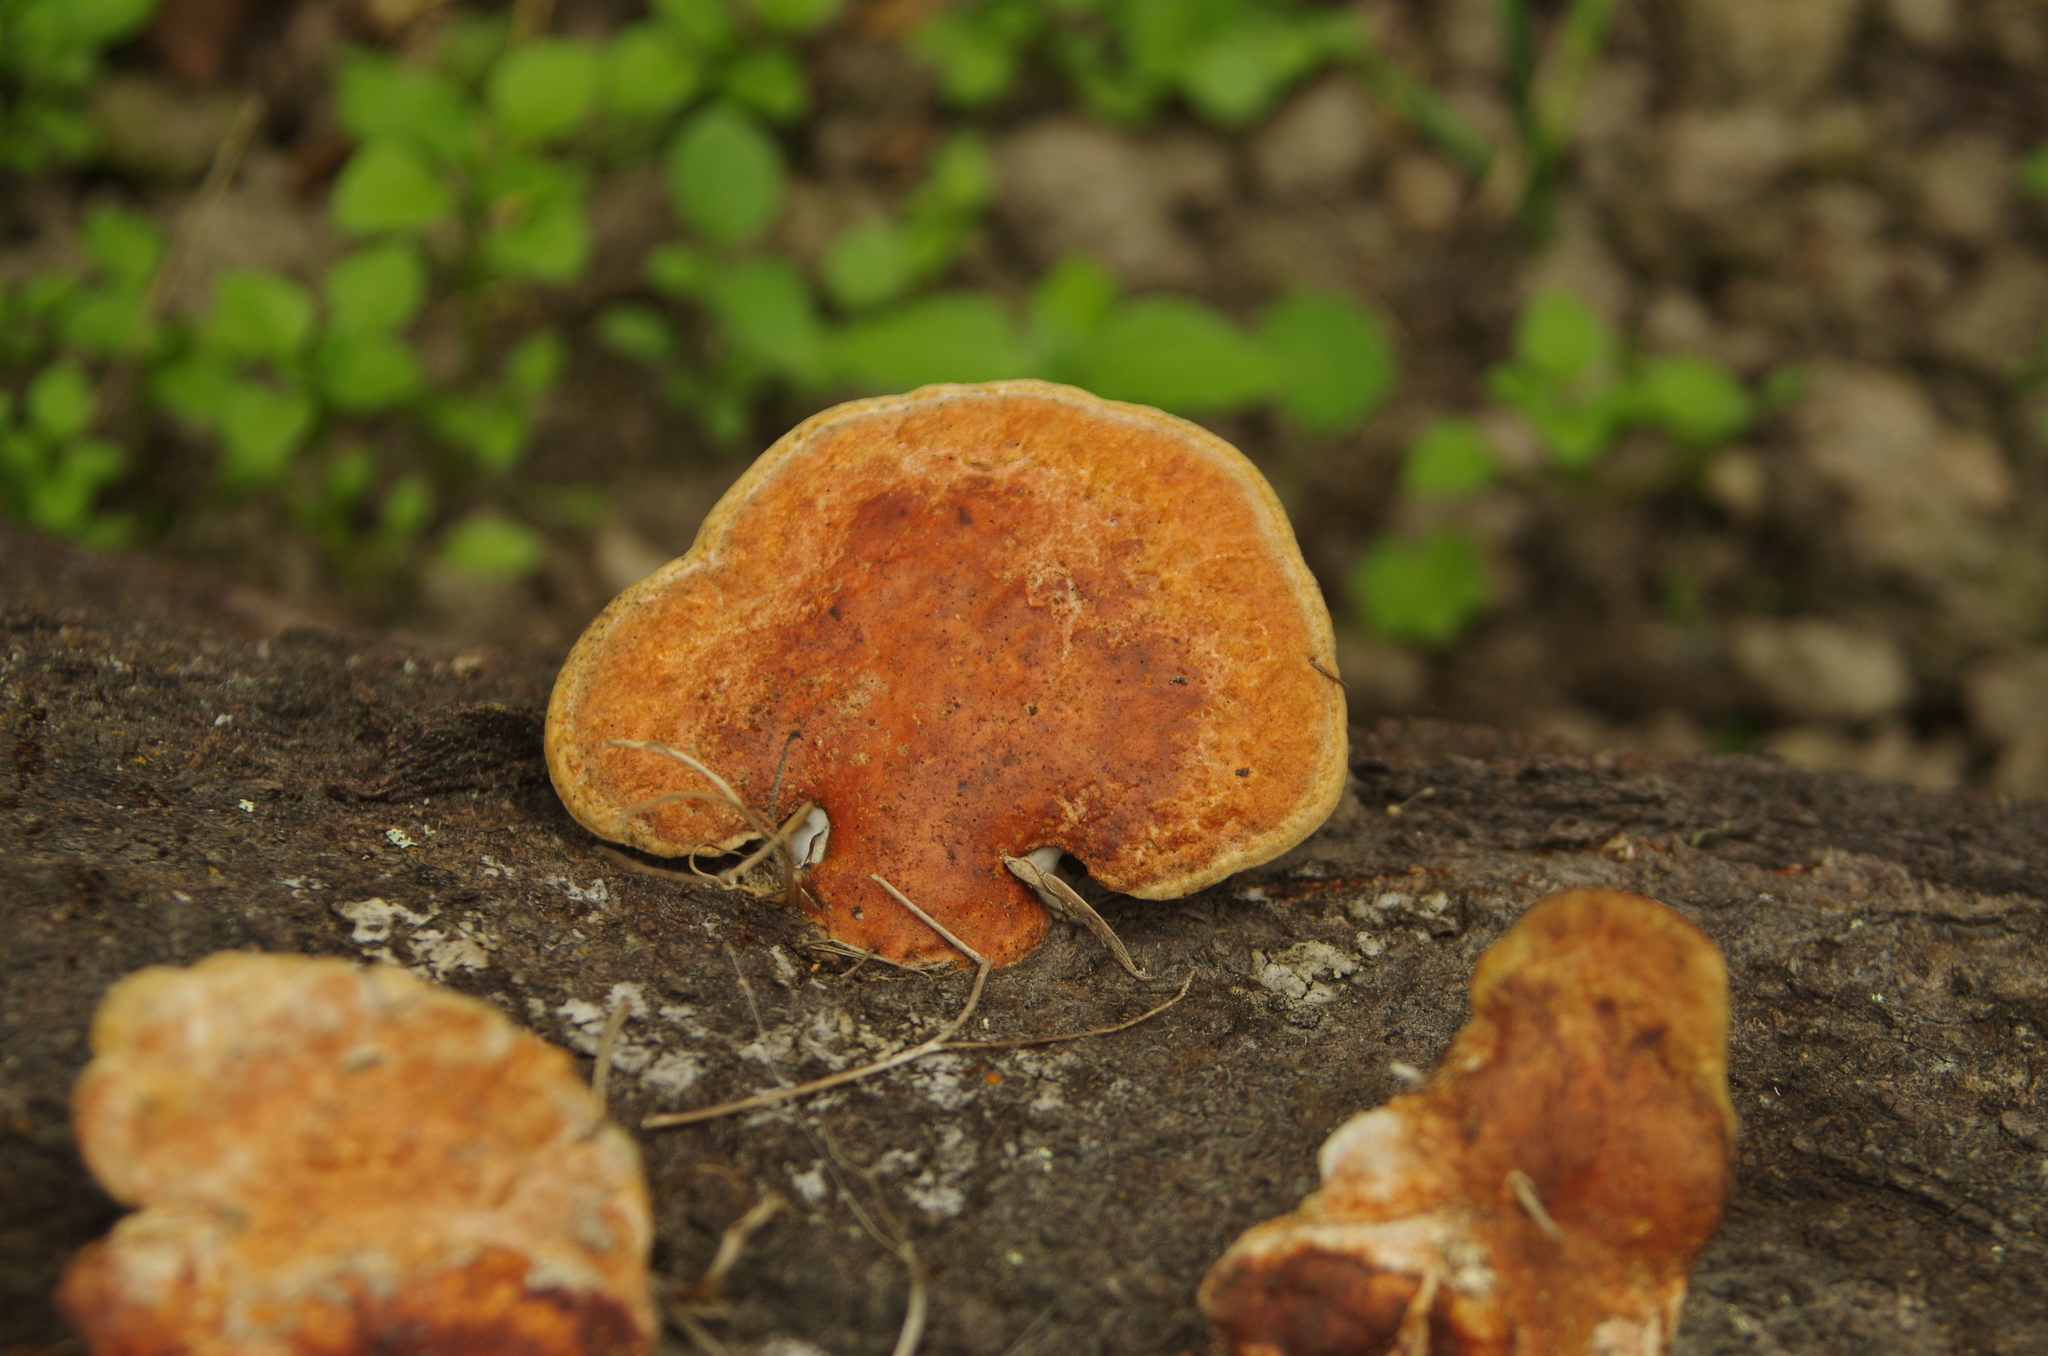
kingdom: Fungi
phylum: Basidiomycota
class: Agaricomycetes
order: Polyporales
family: Polyporaceae
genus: Trametes
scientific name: Trametes coccinea
